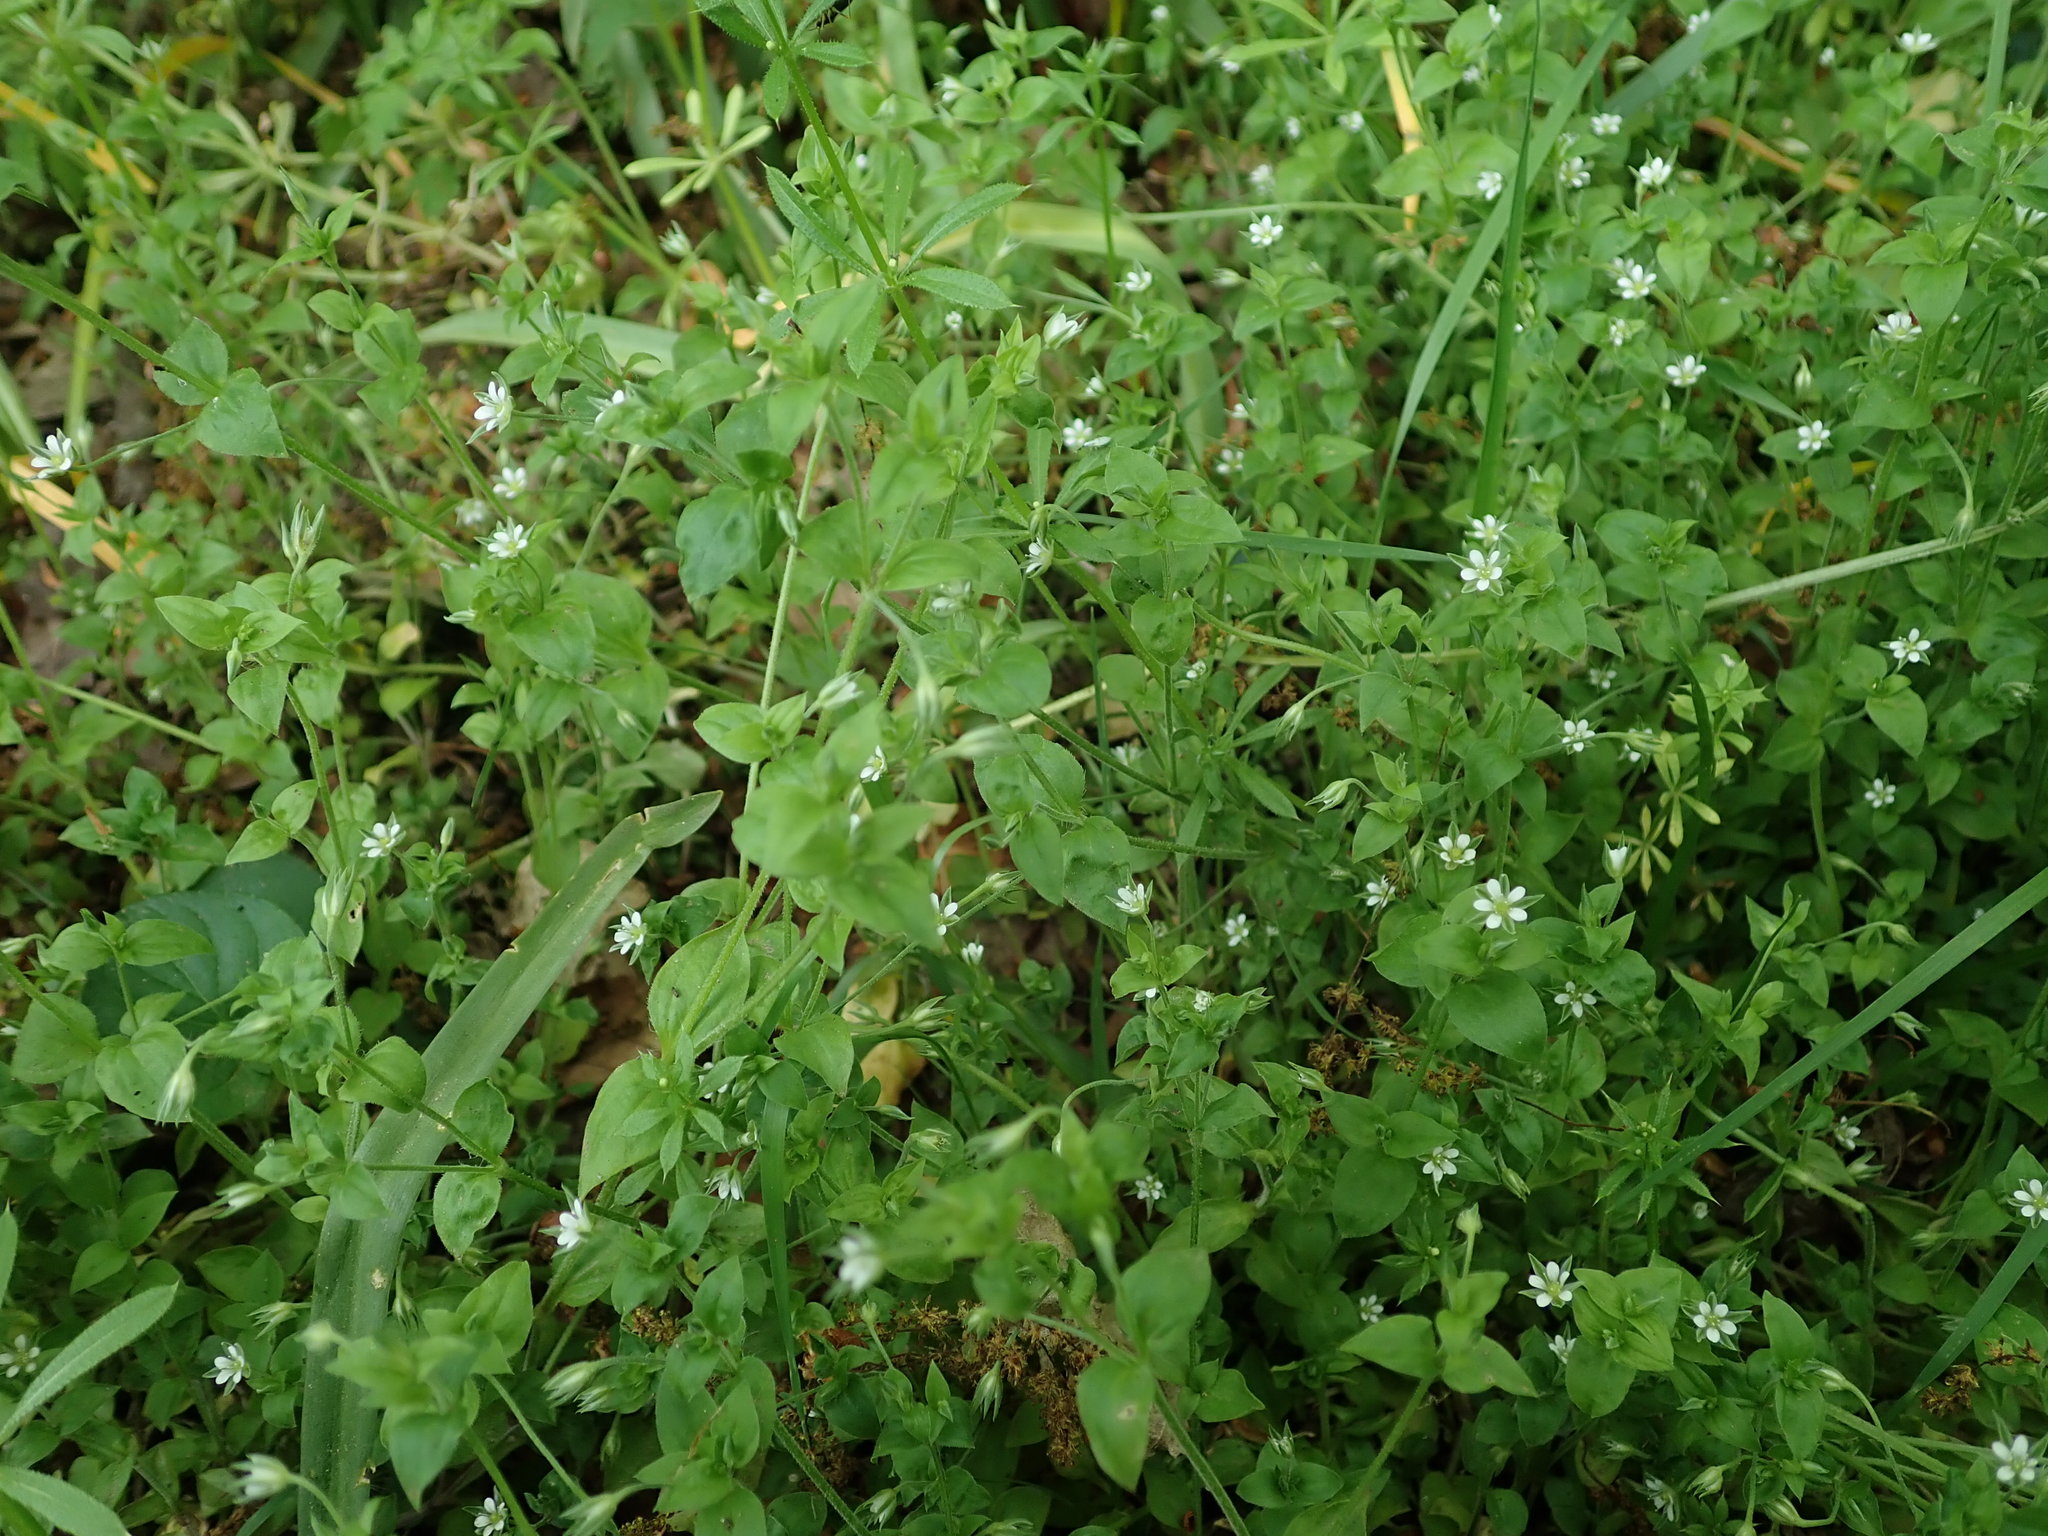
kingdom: Plantae
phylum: Tracheophyta
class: Magnoliopsida
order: Caryophyllales
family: Caryophyllaceae
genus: Moehringia
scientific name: Moehringia trinervia
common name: Three-nerved sandwort
